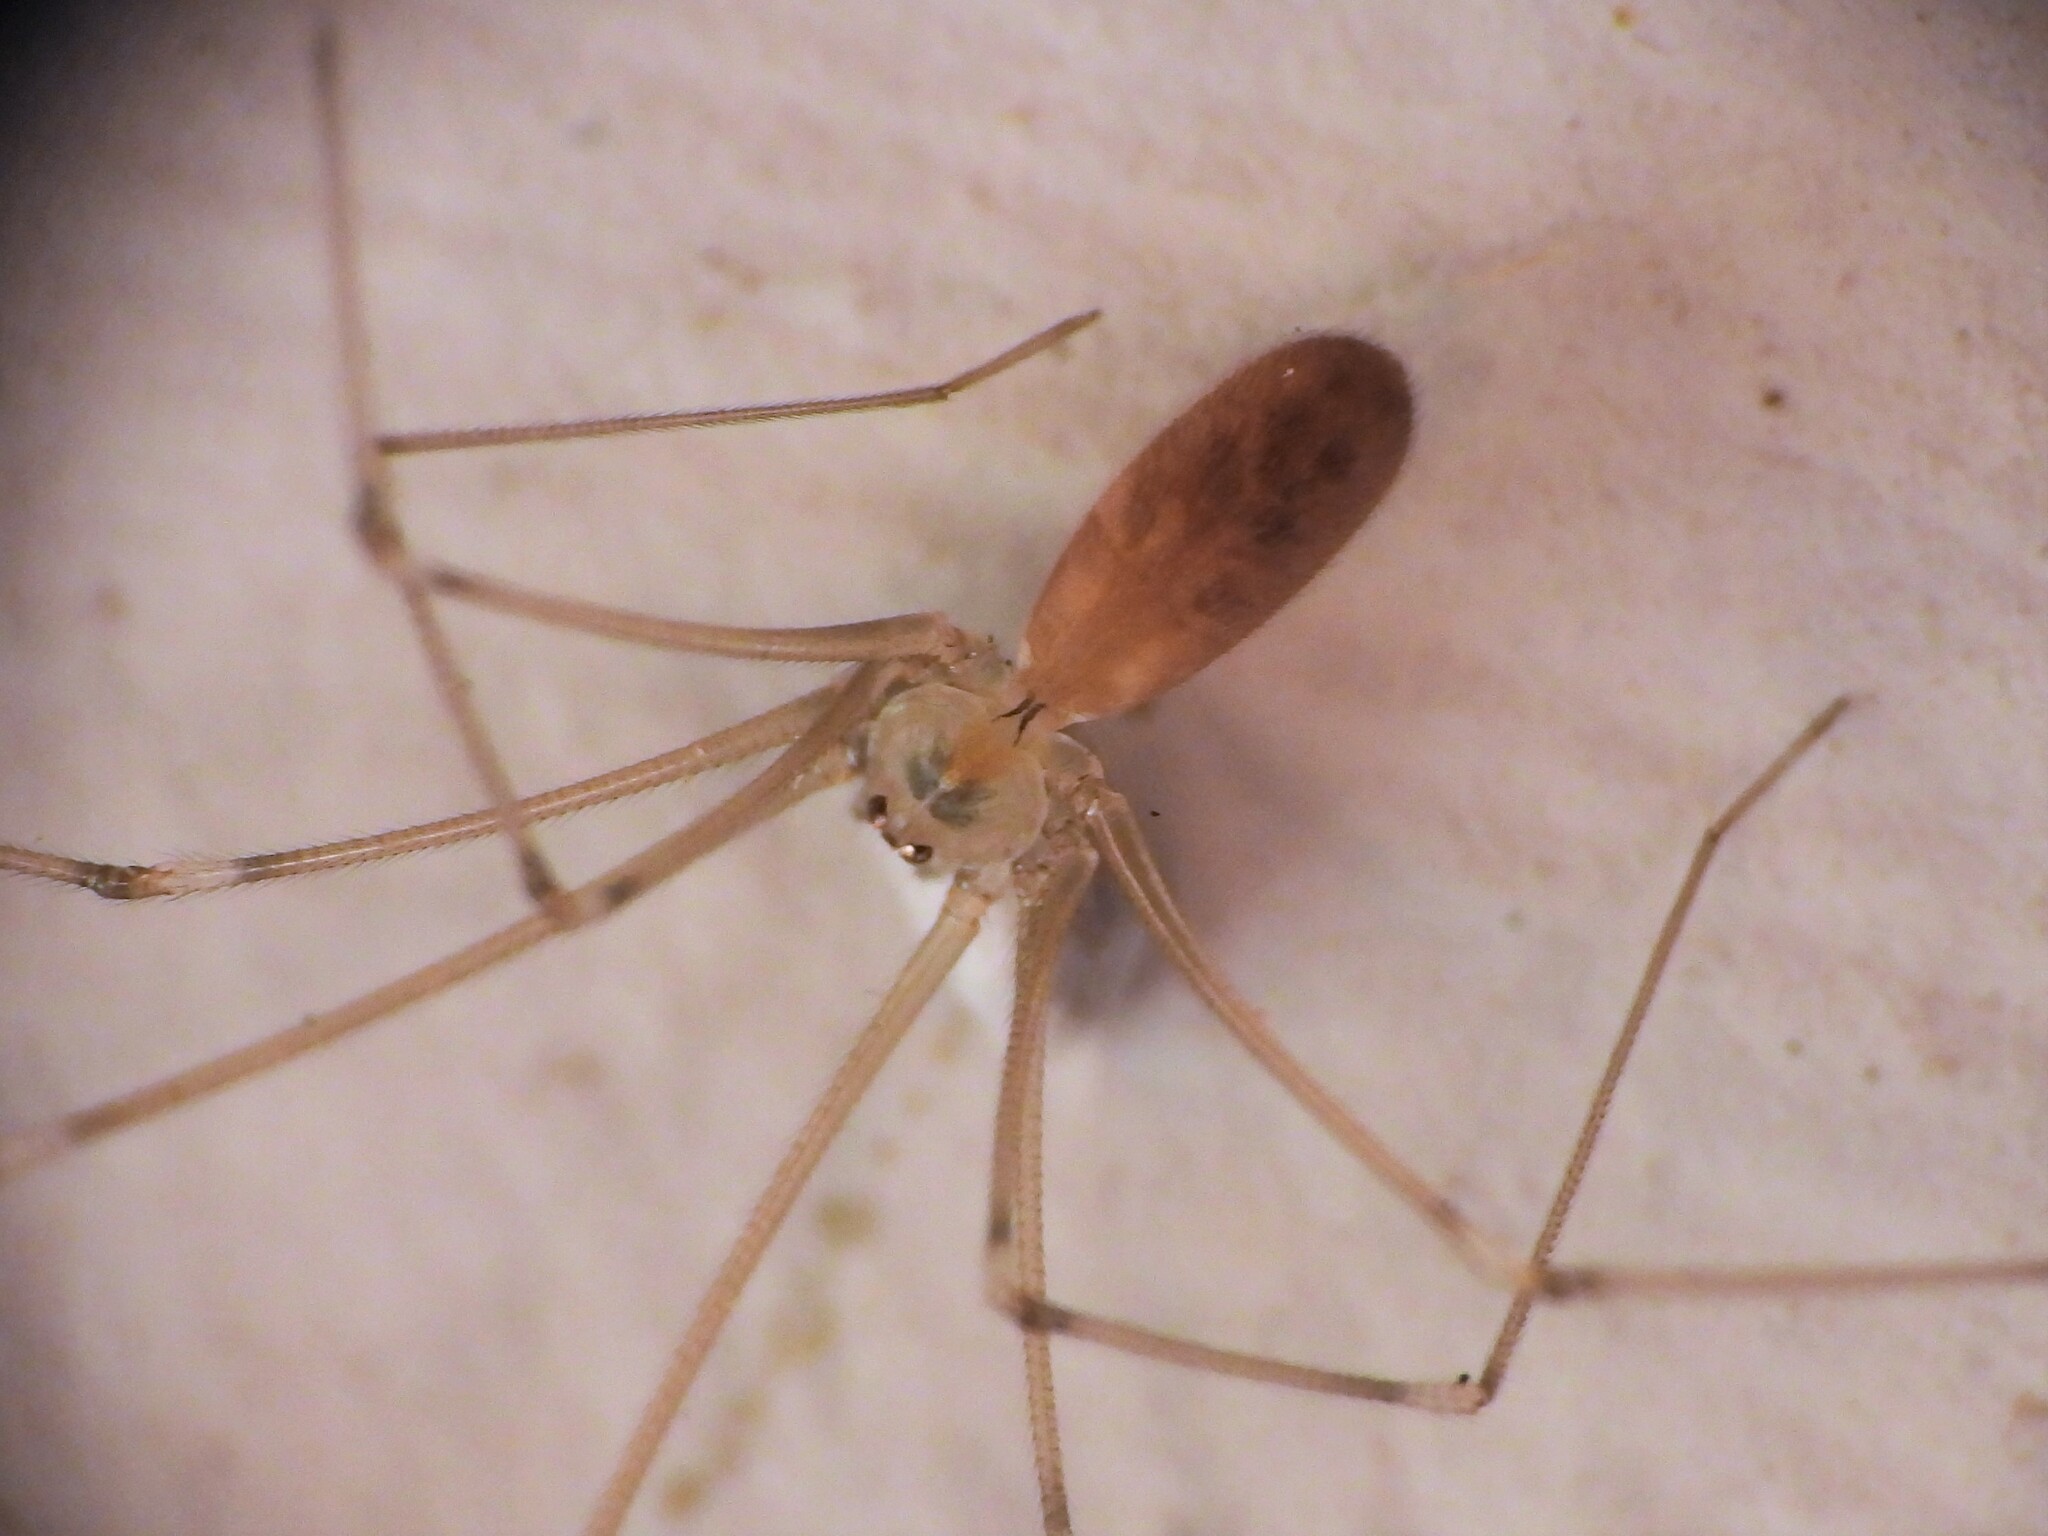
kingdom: Animalia
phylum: Arthropoda
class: Arachnida
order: Araneae
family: Pholcidae
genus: Pholcus
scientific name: Pholcus phalangioides
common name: Longbodied cellar spider
